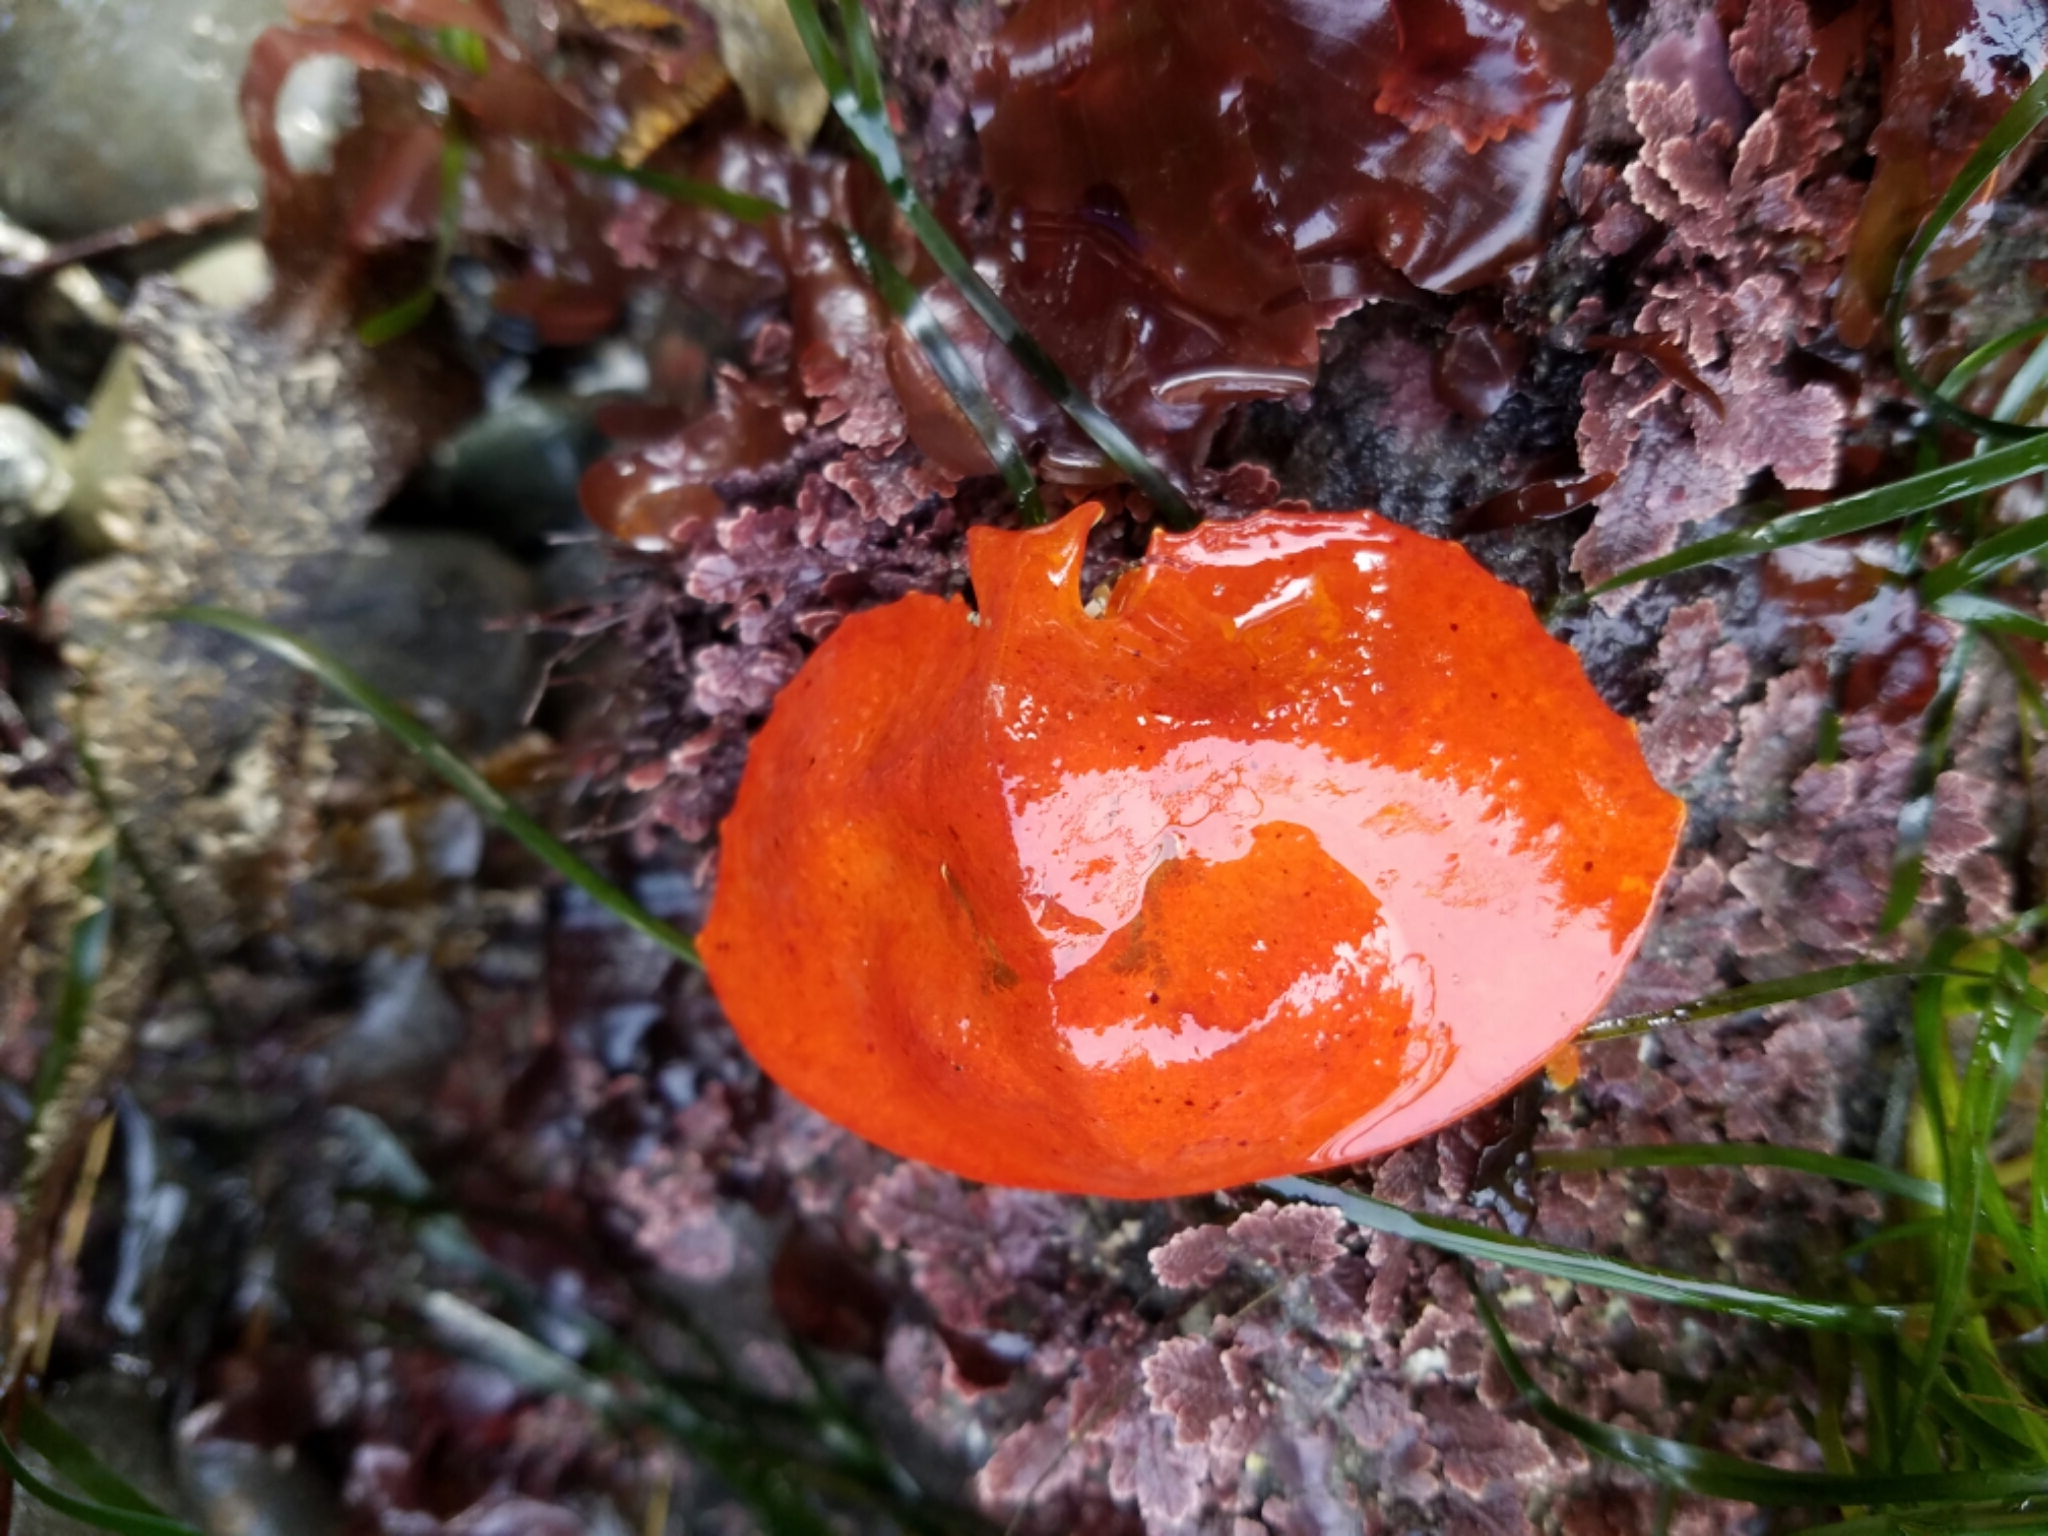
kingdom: Animalia
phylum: Arthropoda
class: Malacostraca
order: Decapoda
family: Lithodidae
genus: Cryptolithodes
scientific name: Cryptolithodes sitchensis
